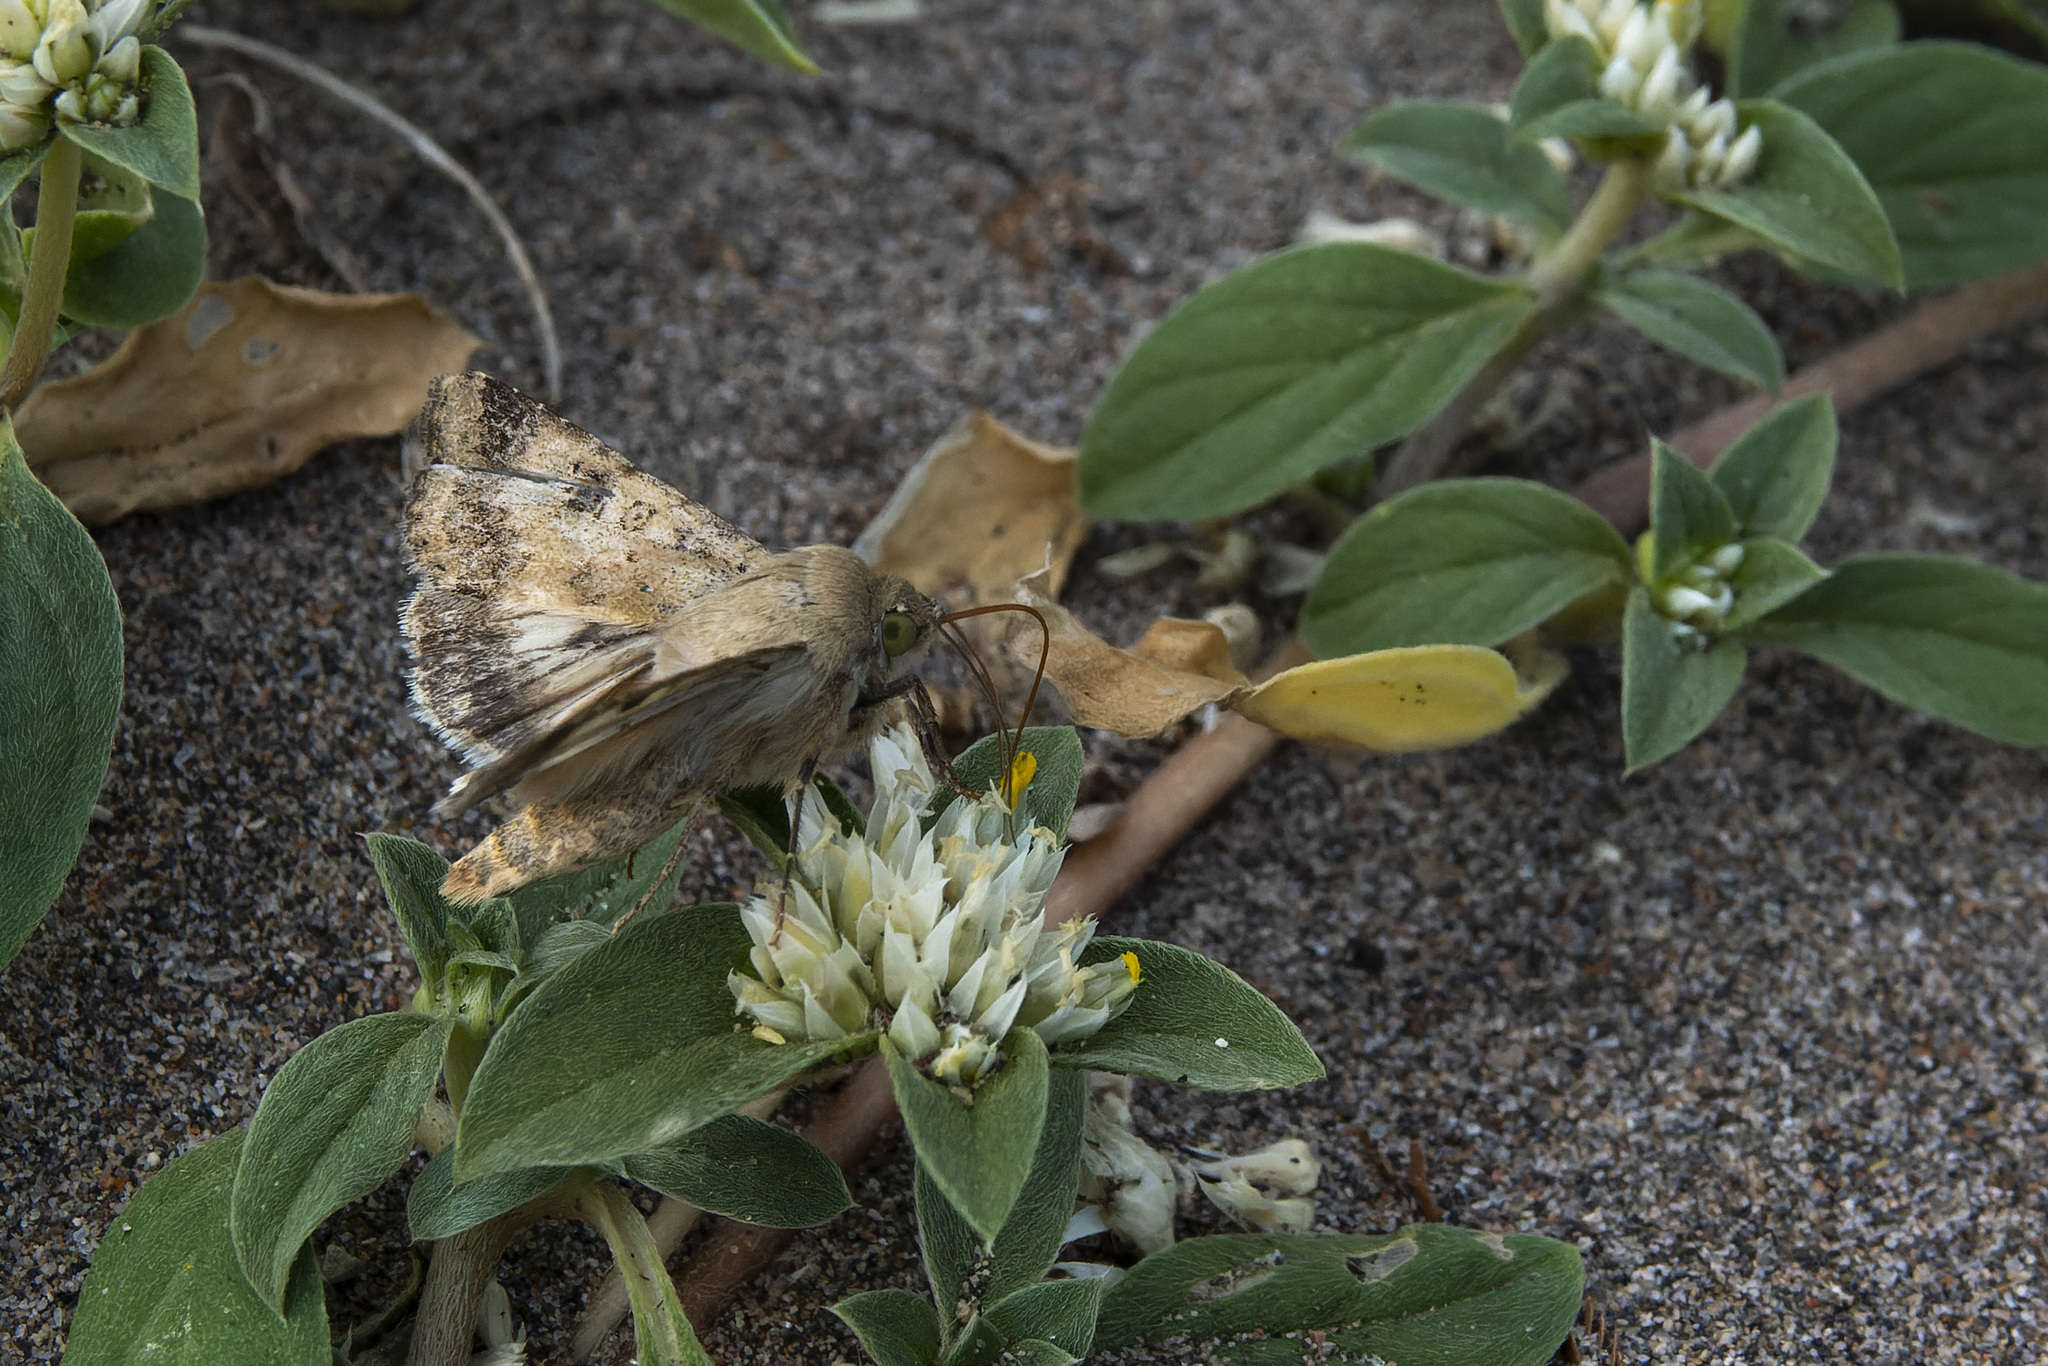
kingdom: Animalia
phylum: Arthropoda
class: Insecta
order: Lepidoptera
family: Noctuidae
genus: Helicoverpa
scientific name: Helicoverpa gelotopoeon
